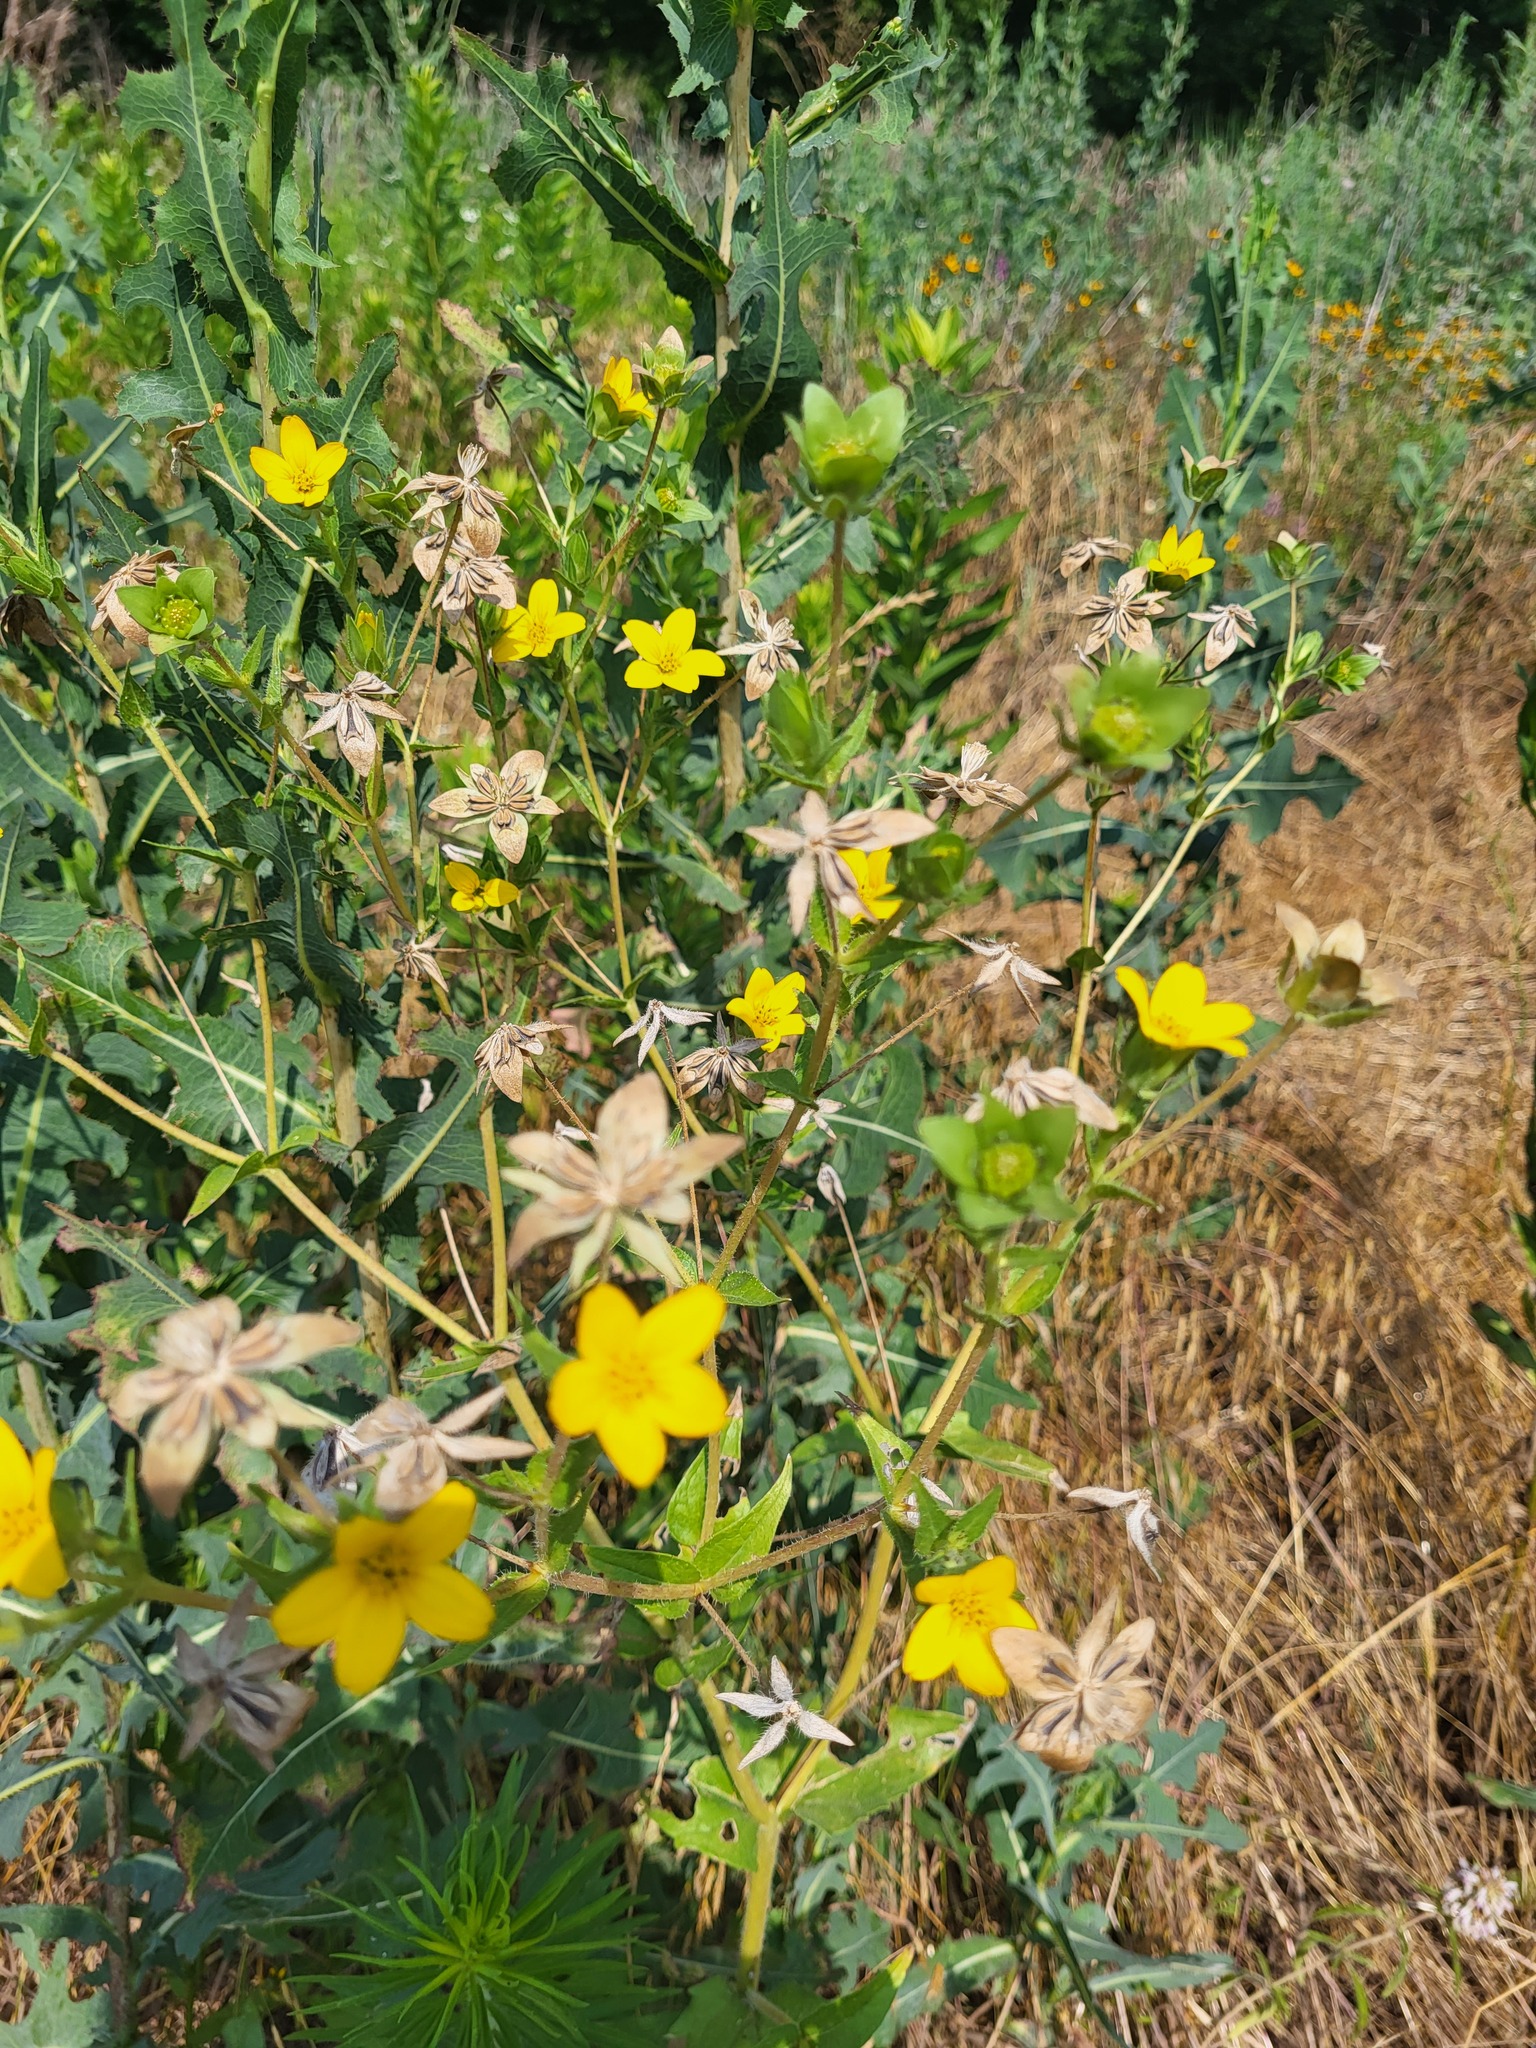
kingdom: Plantae
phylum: Tracheophyta
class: Magnoliopsida
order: Asterales
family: Asteraceae
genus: Lindheimera
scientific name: Lindheimera texana
